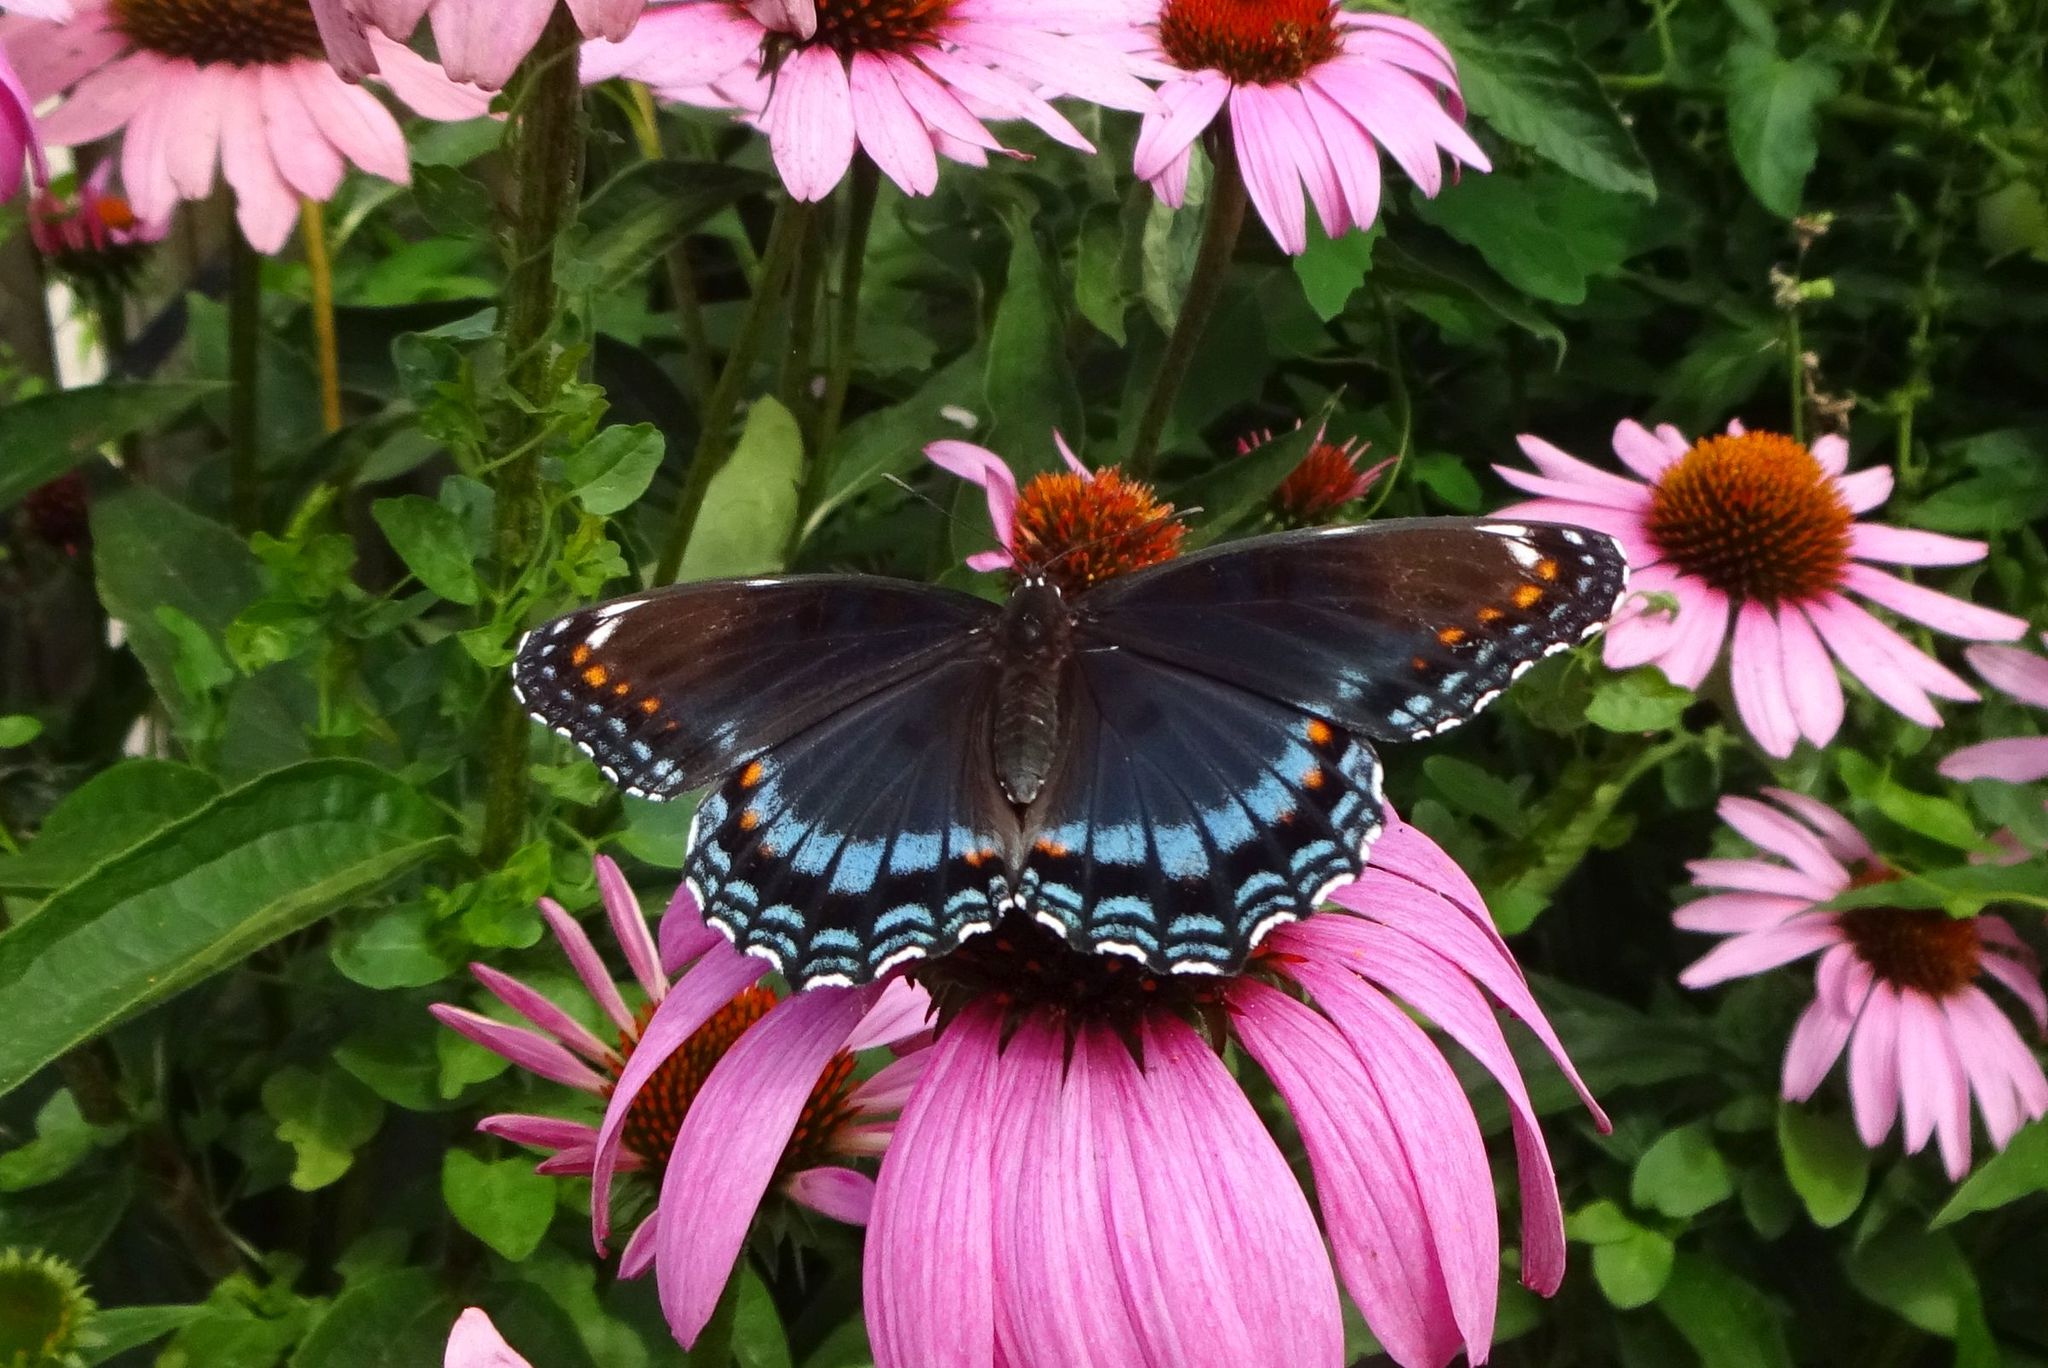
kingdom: Animalia
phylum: Arthropoda
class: Insecta
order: Lepidoptera
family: Nymphalidae
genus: Limenitis
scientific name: Limenitis astyanax
